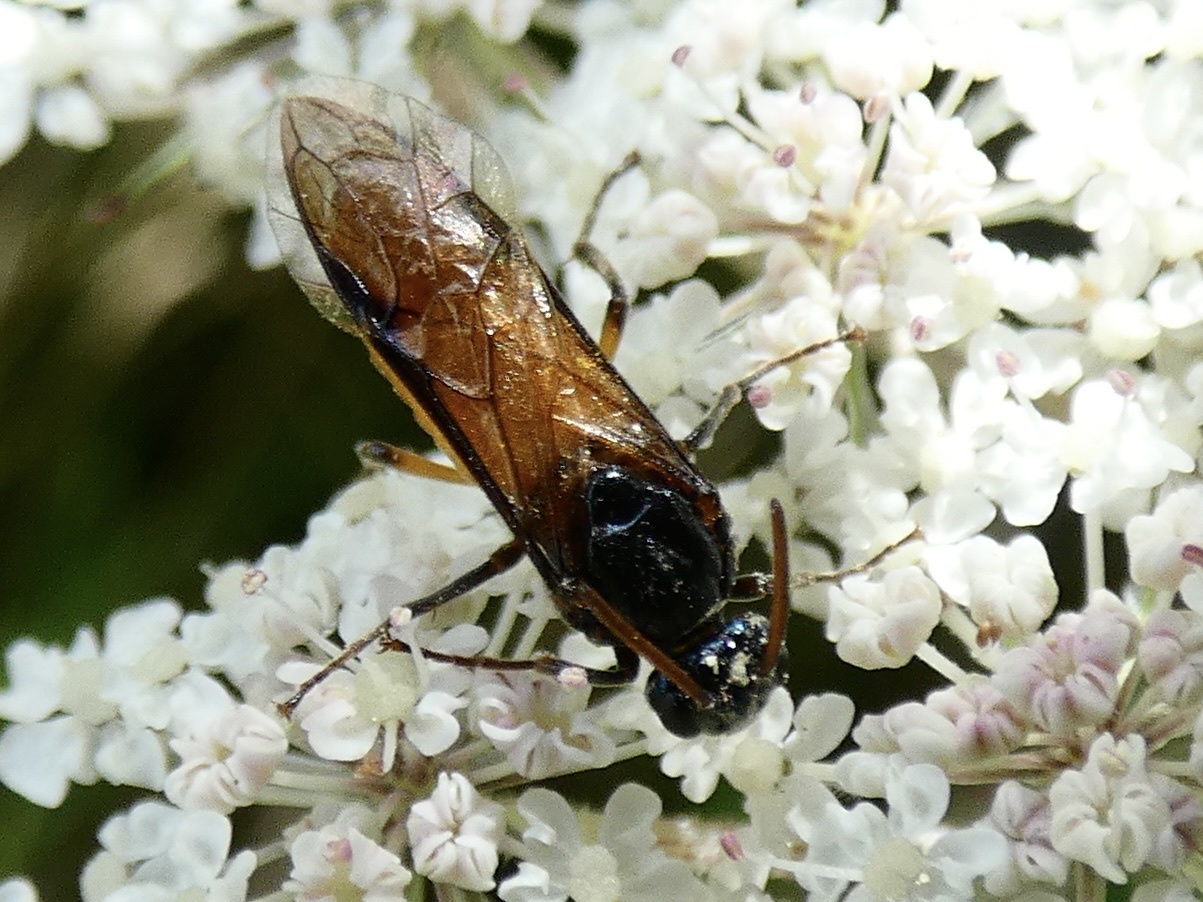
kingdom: Animalia
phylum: Arthropoda
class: Insecta
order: Hymenoptera
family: Argidae
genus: Arge
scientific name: Arge pagana
